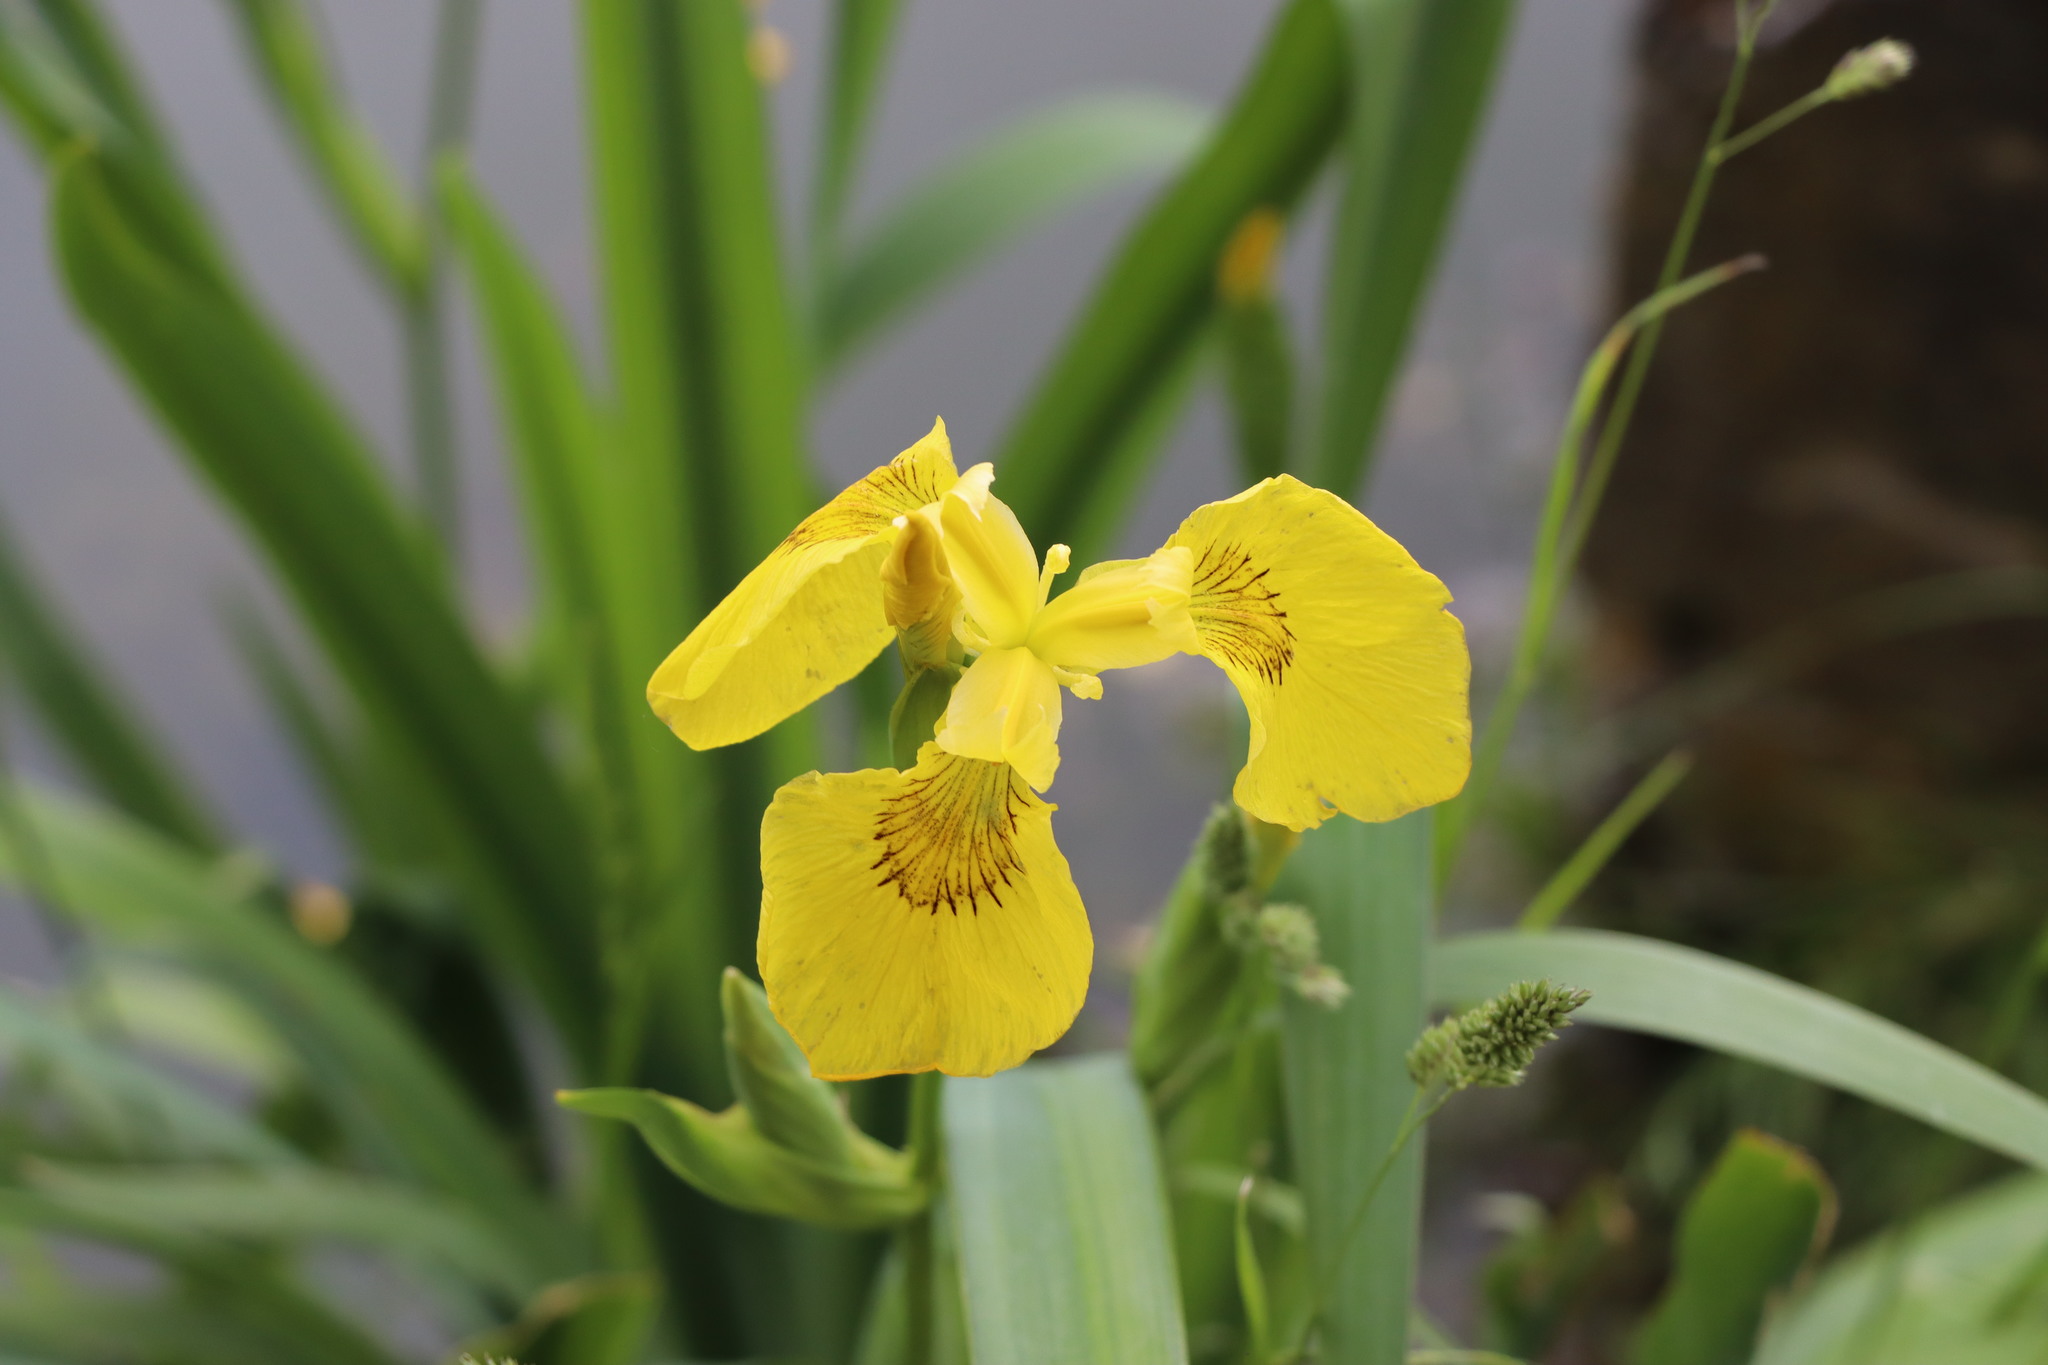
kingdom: Plantae
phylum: Tracheophyta
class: Liliopsida
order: Asparagales
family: Iridaceae
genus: Iris
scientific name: Iris pseudacorus
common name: Yellow flag
